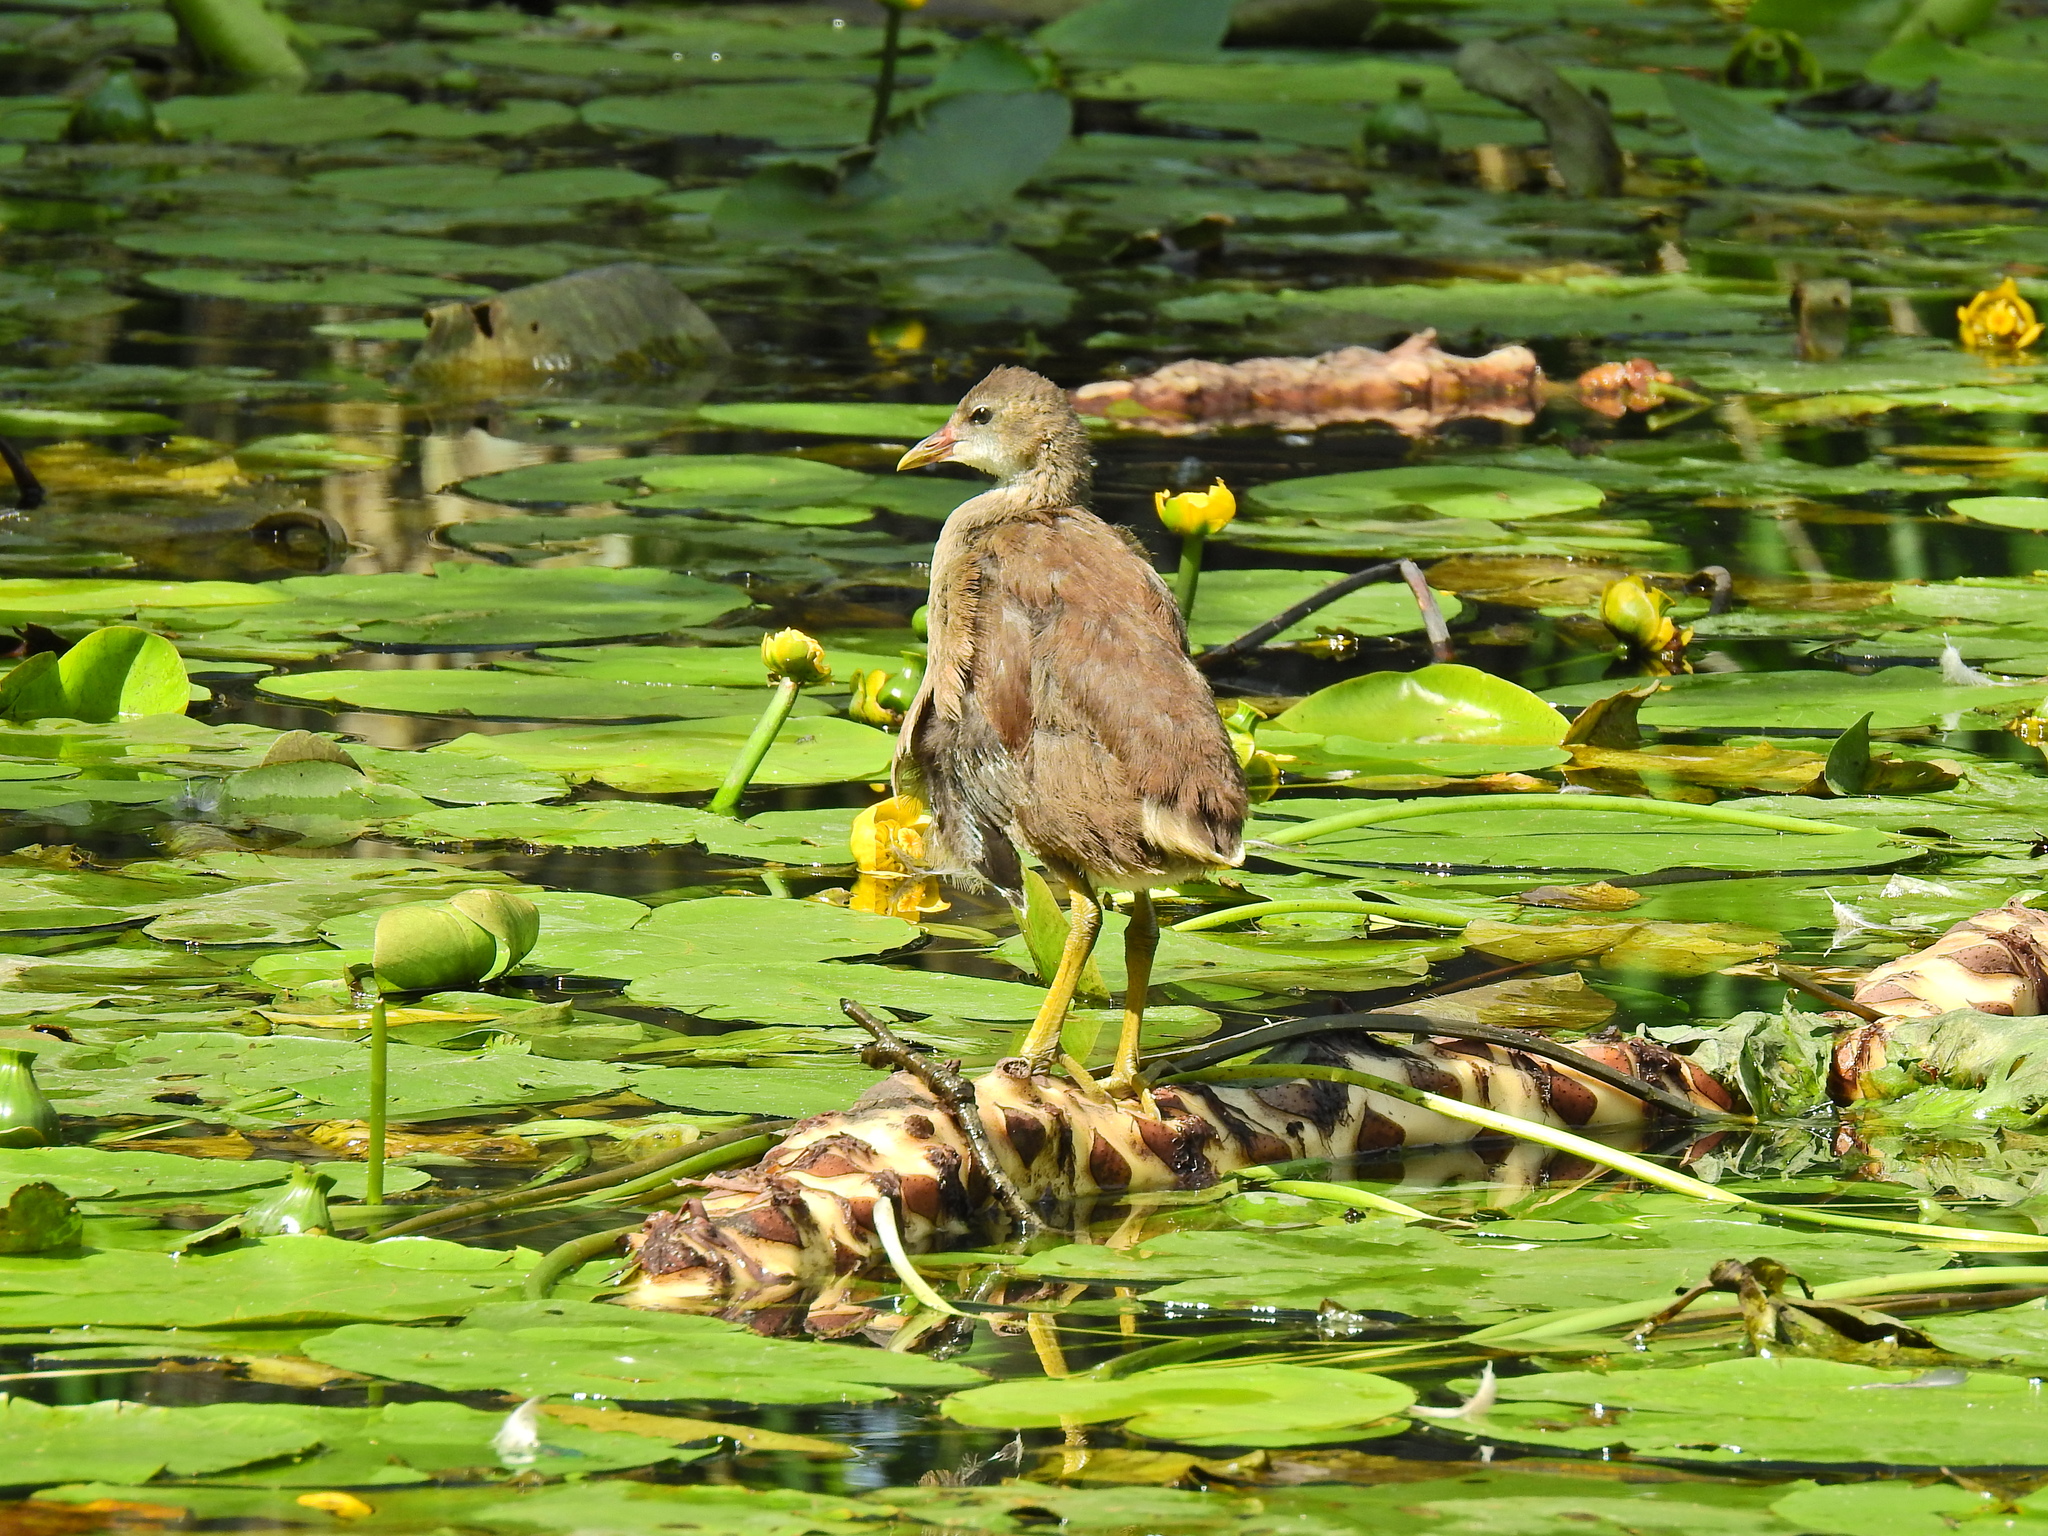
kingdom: Animalia
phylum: Chordata
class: Aves
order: Gruiformes
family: Rallidae
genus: Gallinula
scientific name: Gallinula chloropus
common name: Common moorhen
